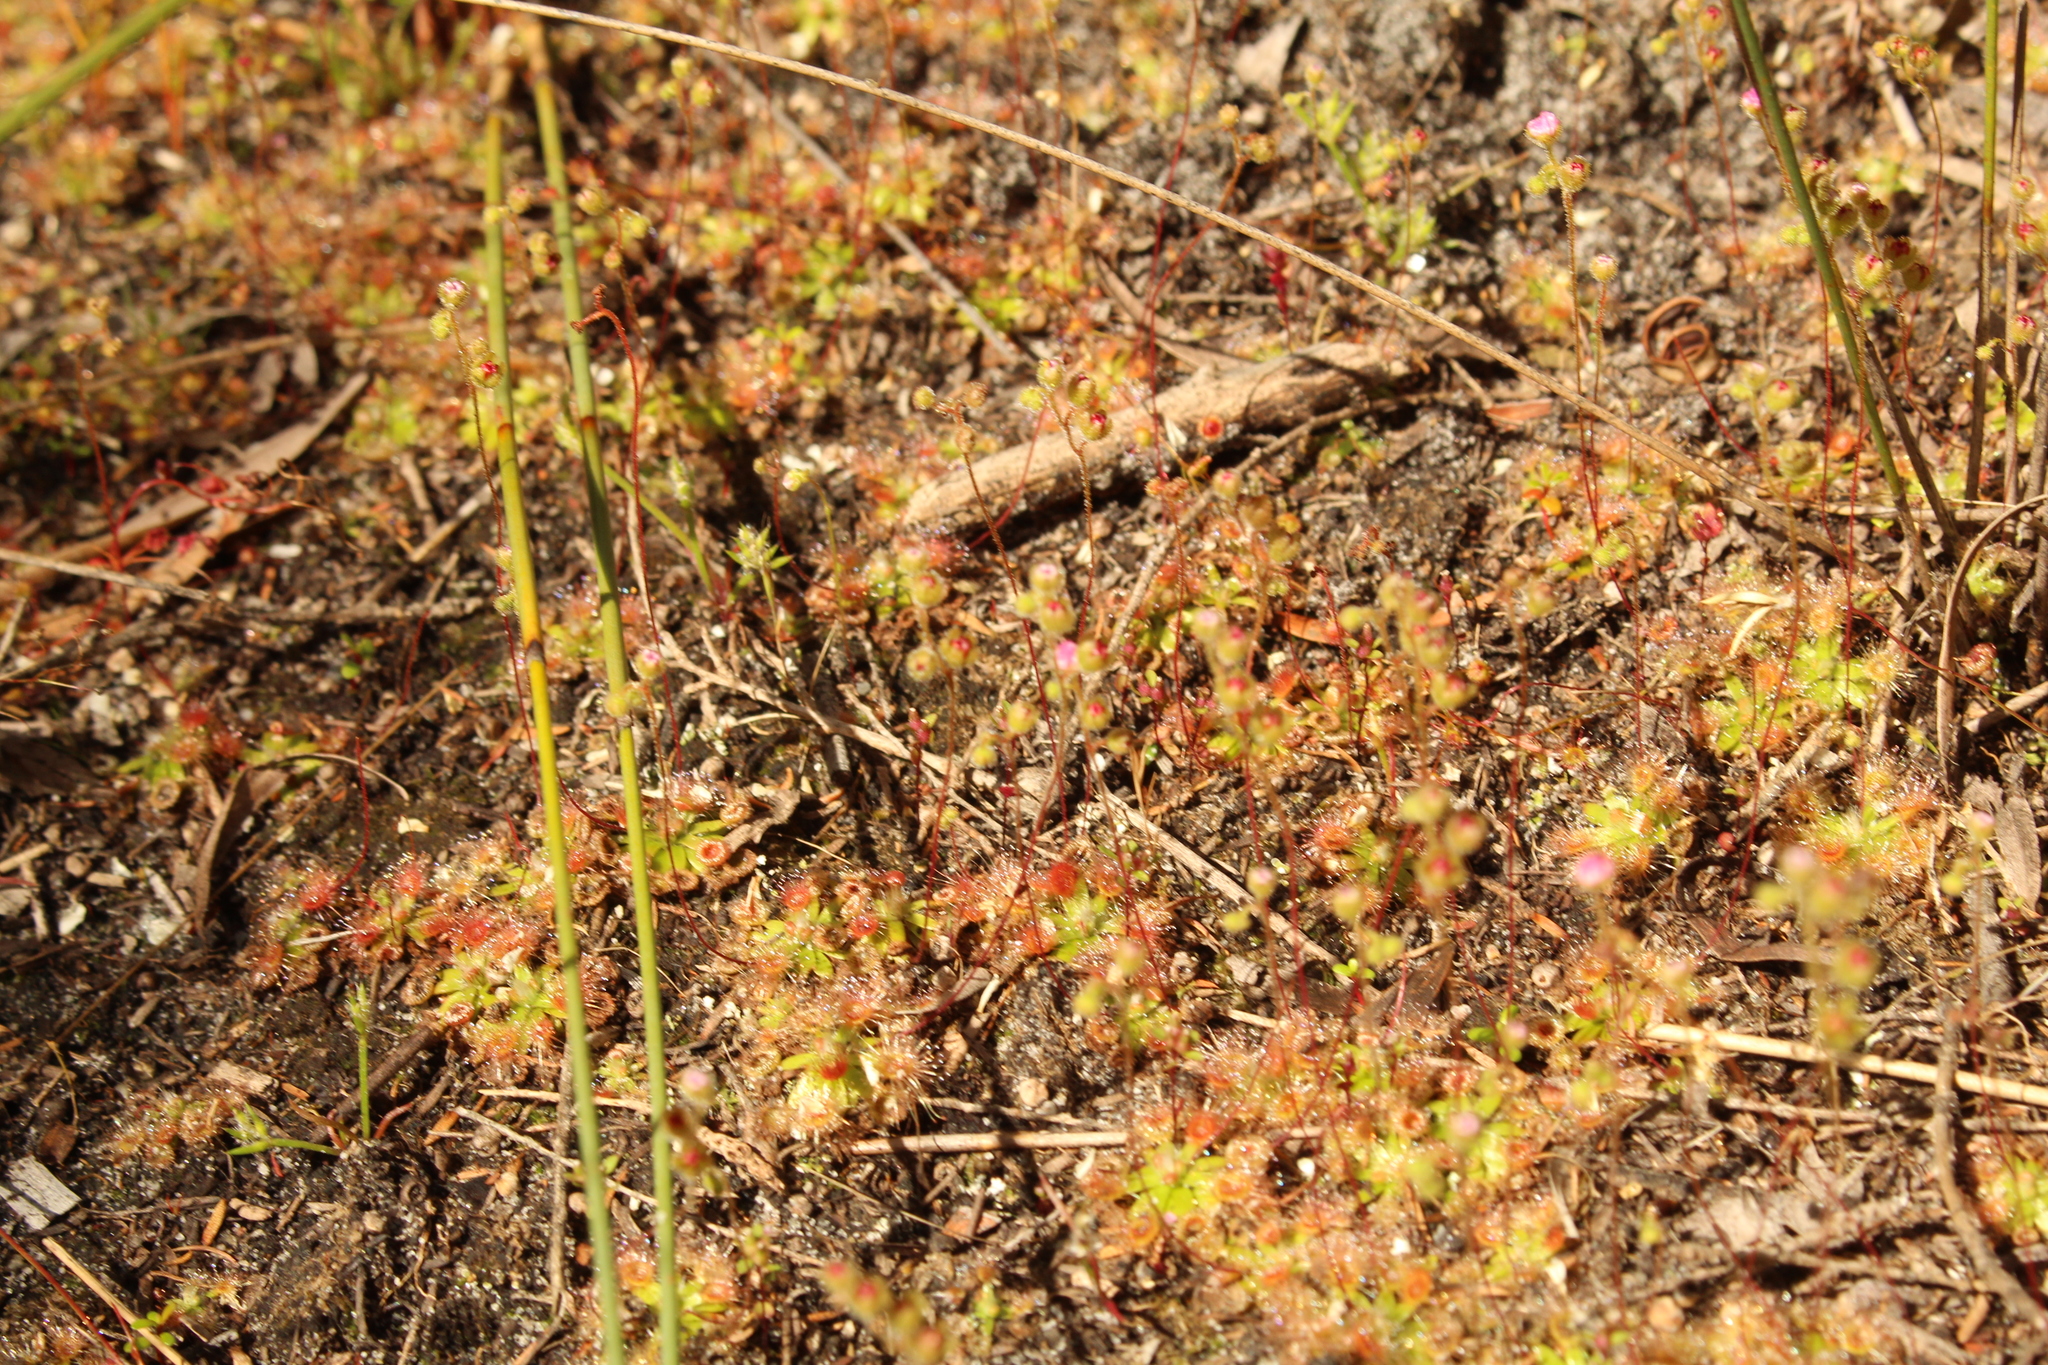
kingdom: Plantae
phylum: Tracheophyta
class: Magnoliopsida
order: Caryophyllales
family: Droseraceae
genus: Drosera
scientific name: Drosera pulchella
